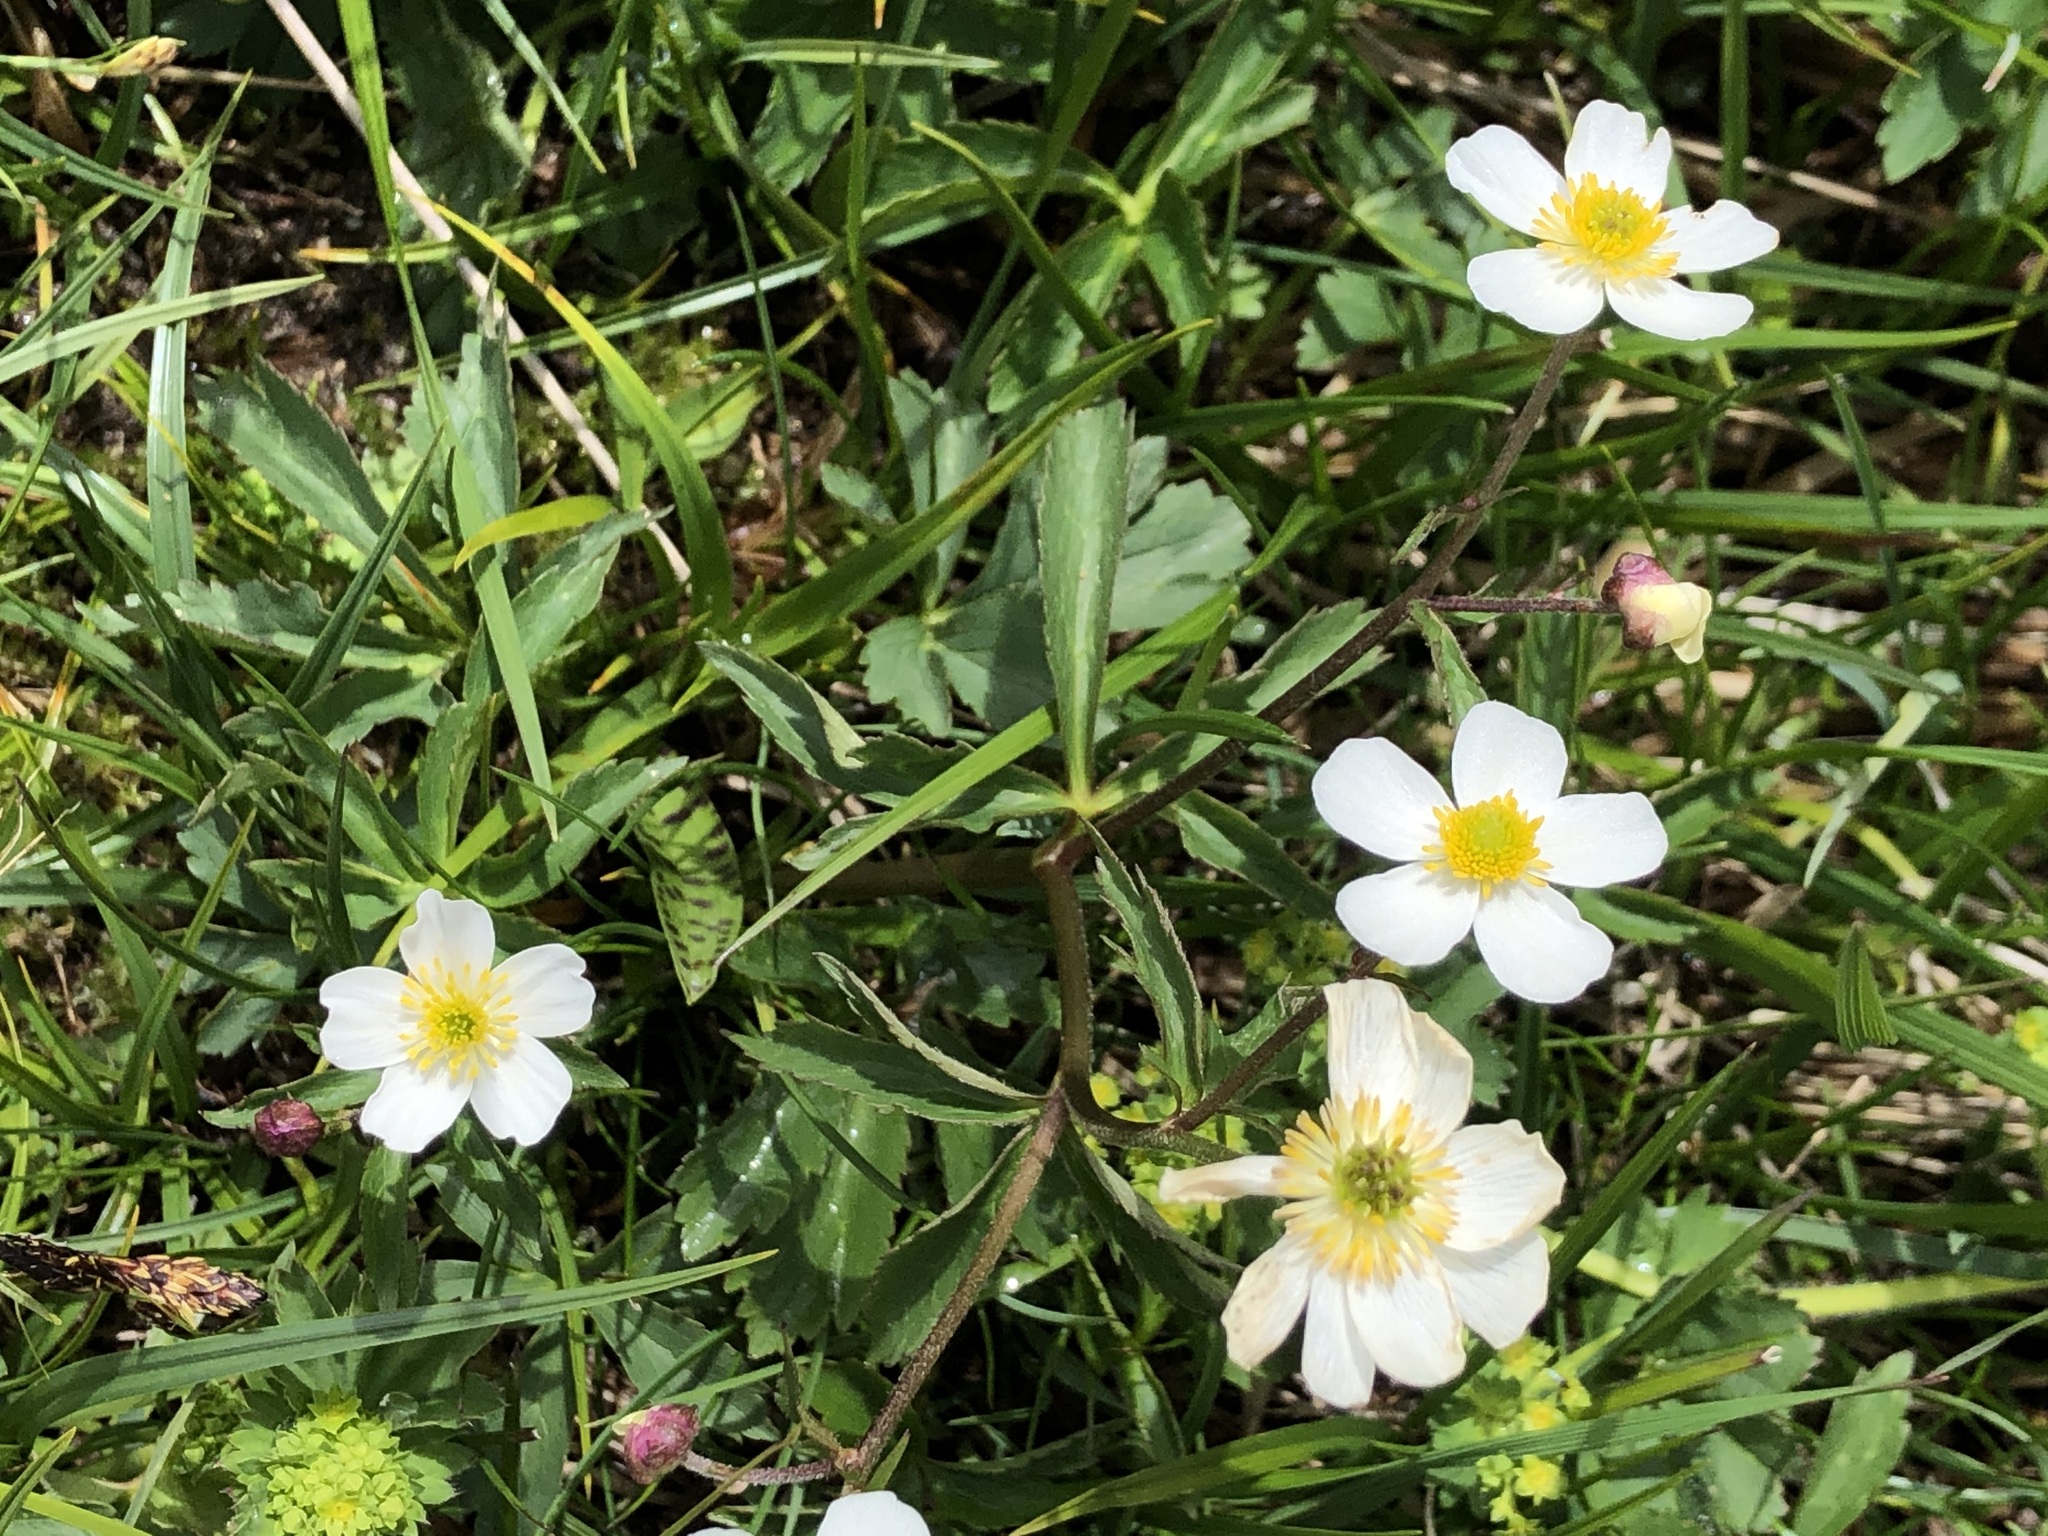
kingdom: Plantae
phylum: Tracheophyta
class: Magnoliopsida
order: Ranunculales
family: Ranunculaceae
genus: Ranunculus
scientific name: Ranunculus aconitifolius
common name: Aconite-leaved buttercup
